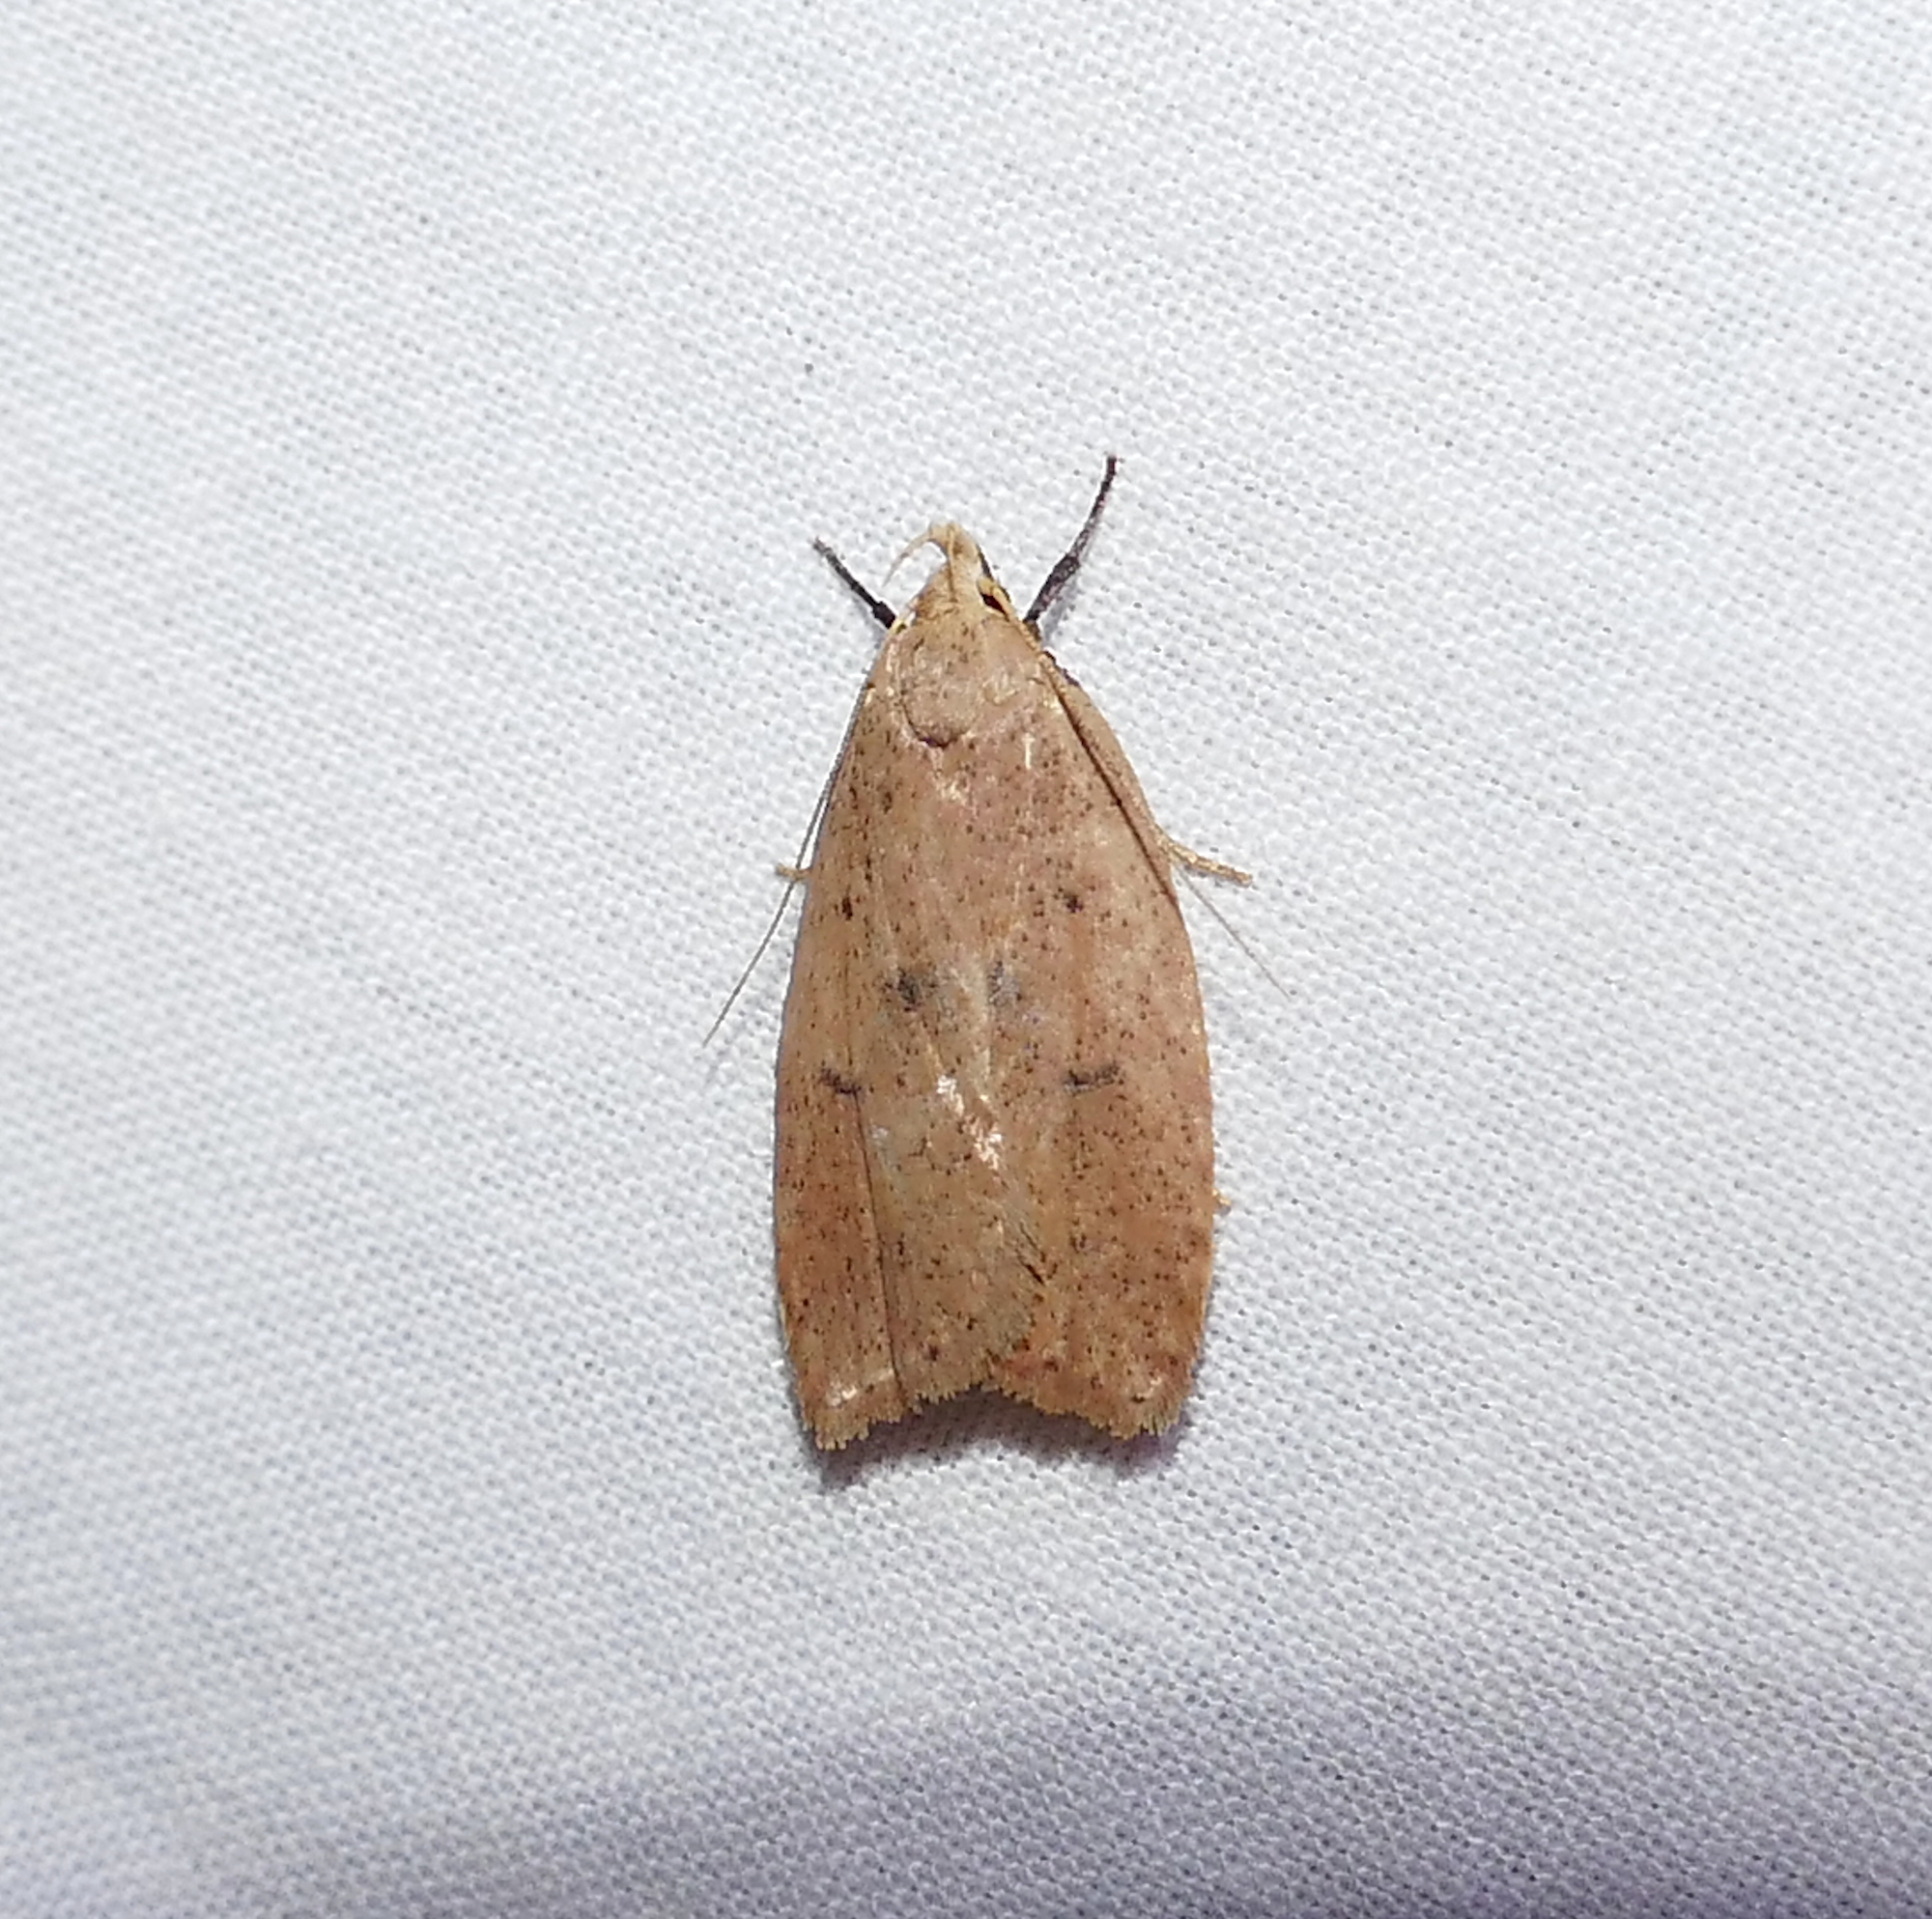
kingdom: Animalia
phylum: Arthropoda
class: Insecta
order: Lepidoptera
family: Peleopodidae
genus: Machimia
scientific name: Machimia tentoriferella
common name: Gold-striped leaftier moth
